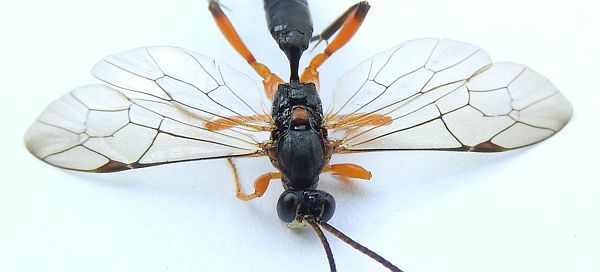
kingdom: Animalia
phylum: Arthropoda
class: Insecta
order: Hymenoptera
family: Ichneumonidae
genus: Aoplus
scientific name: Aoplus velox
